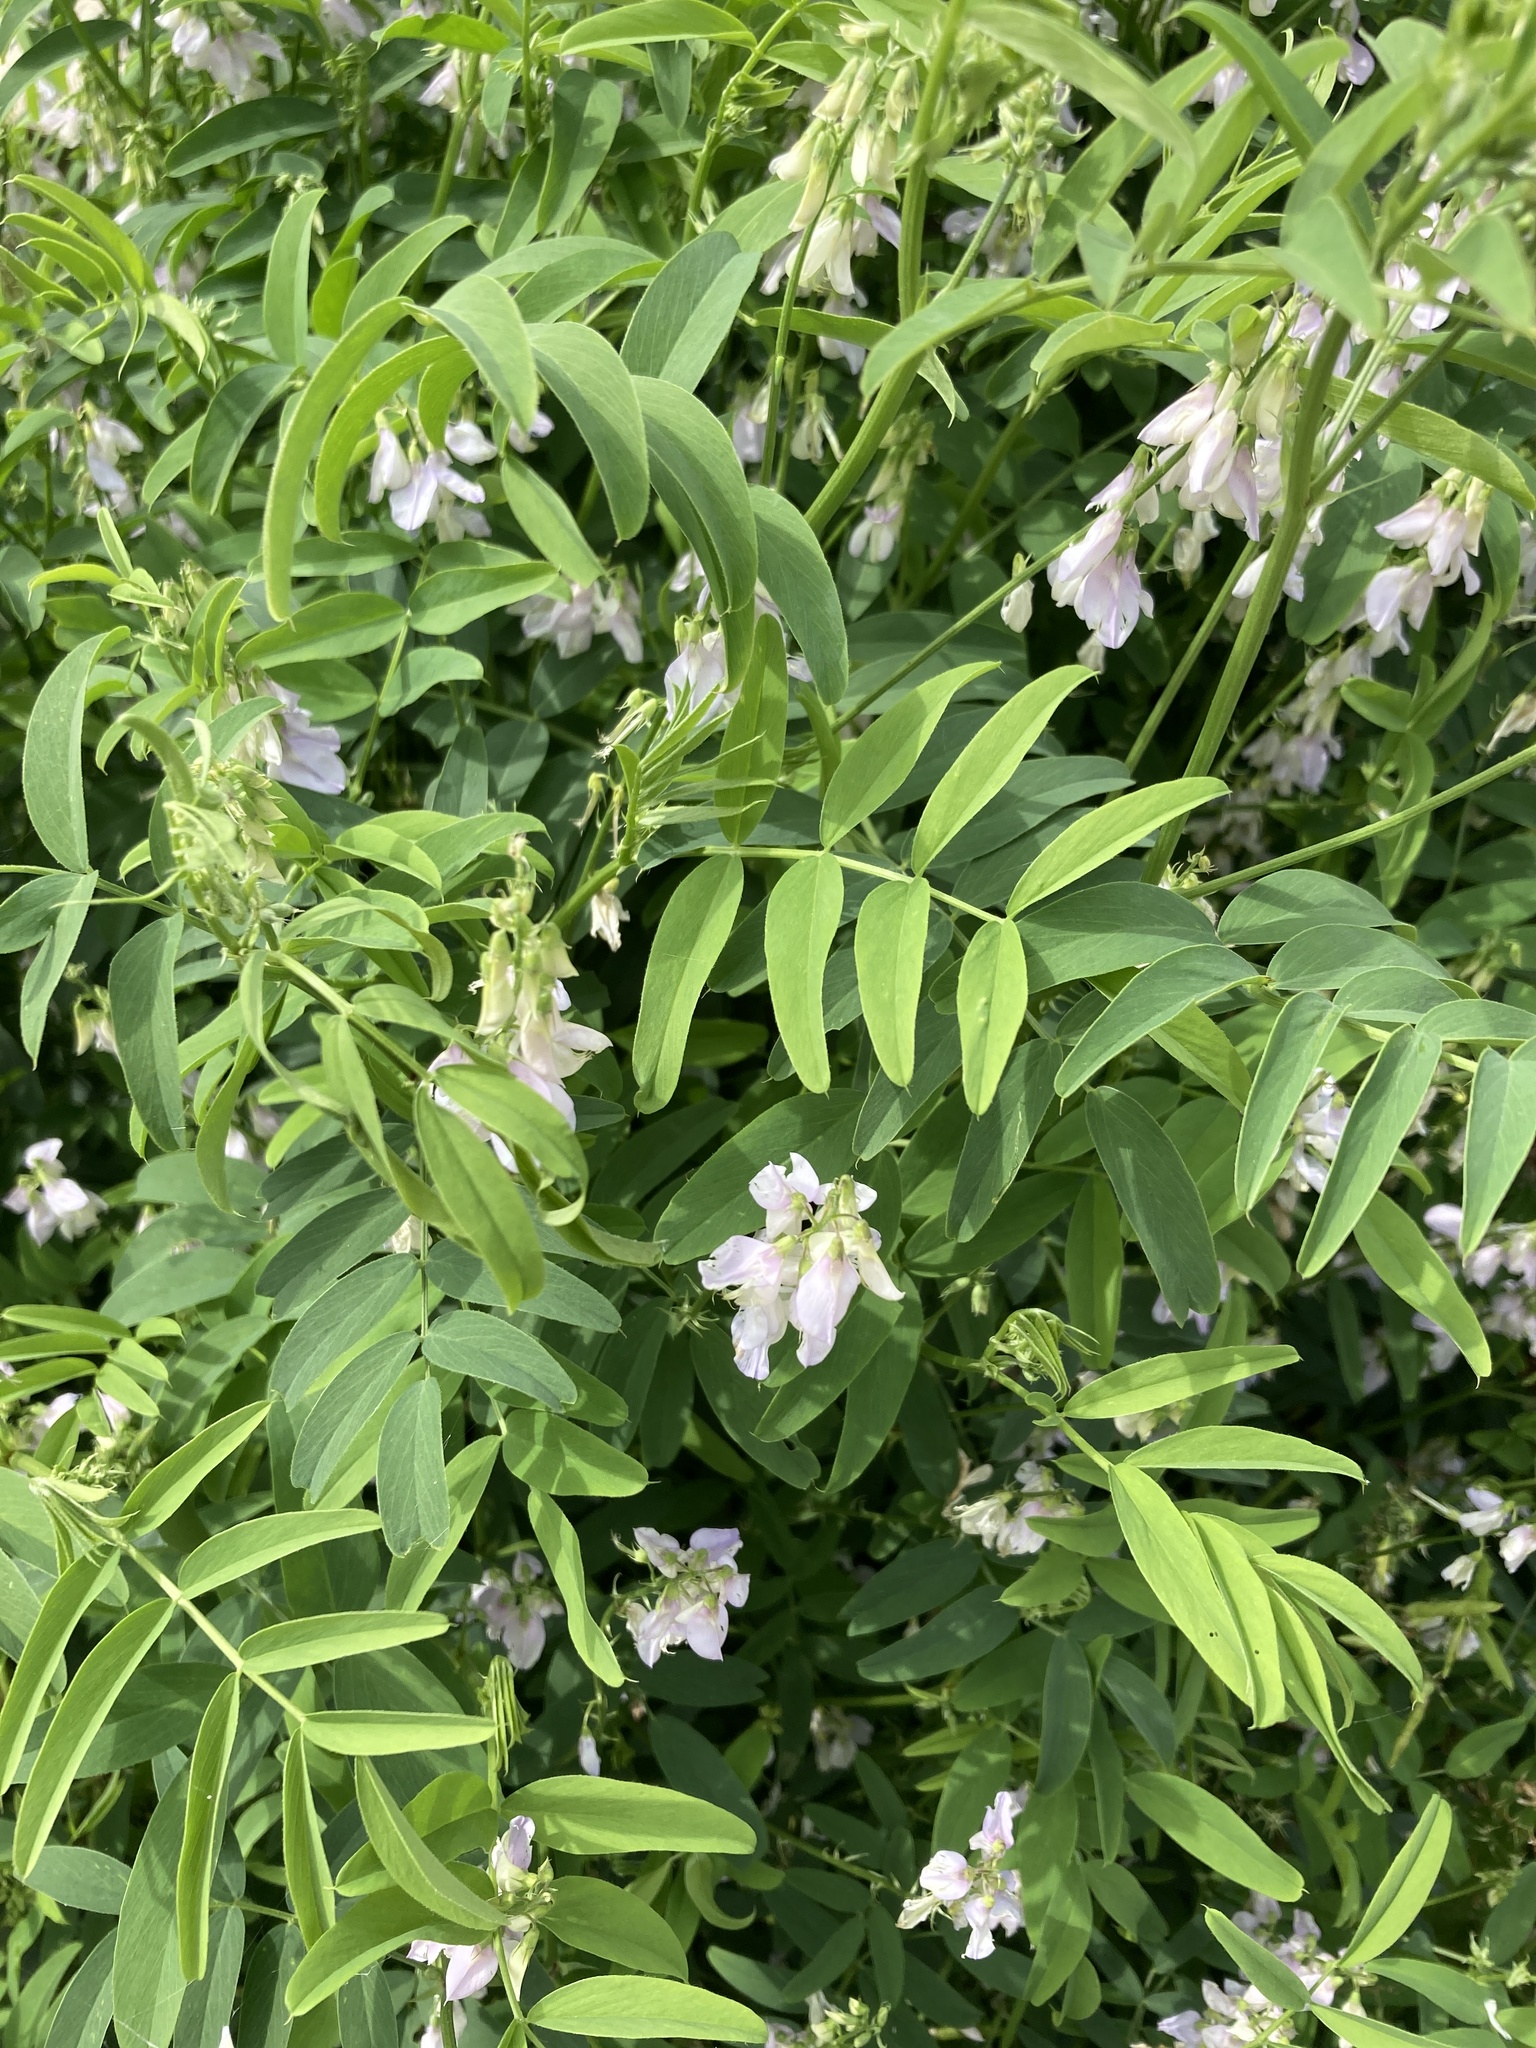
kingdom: Plantae
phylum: Tracheophyta
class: Magnoliopsida
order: Fabales
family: Fabaceae
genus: Galega
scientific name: Galega officinalis
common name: Goat's-rue
